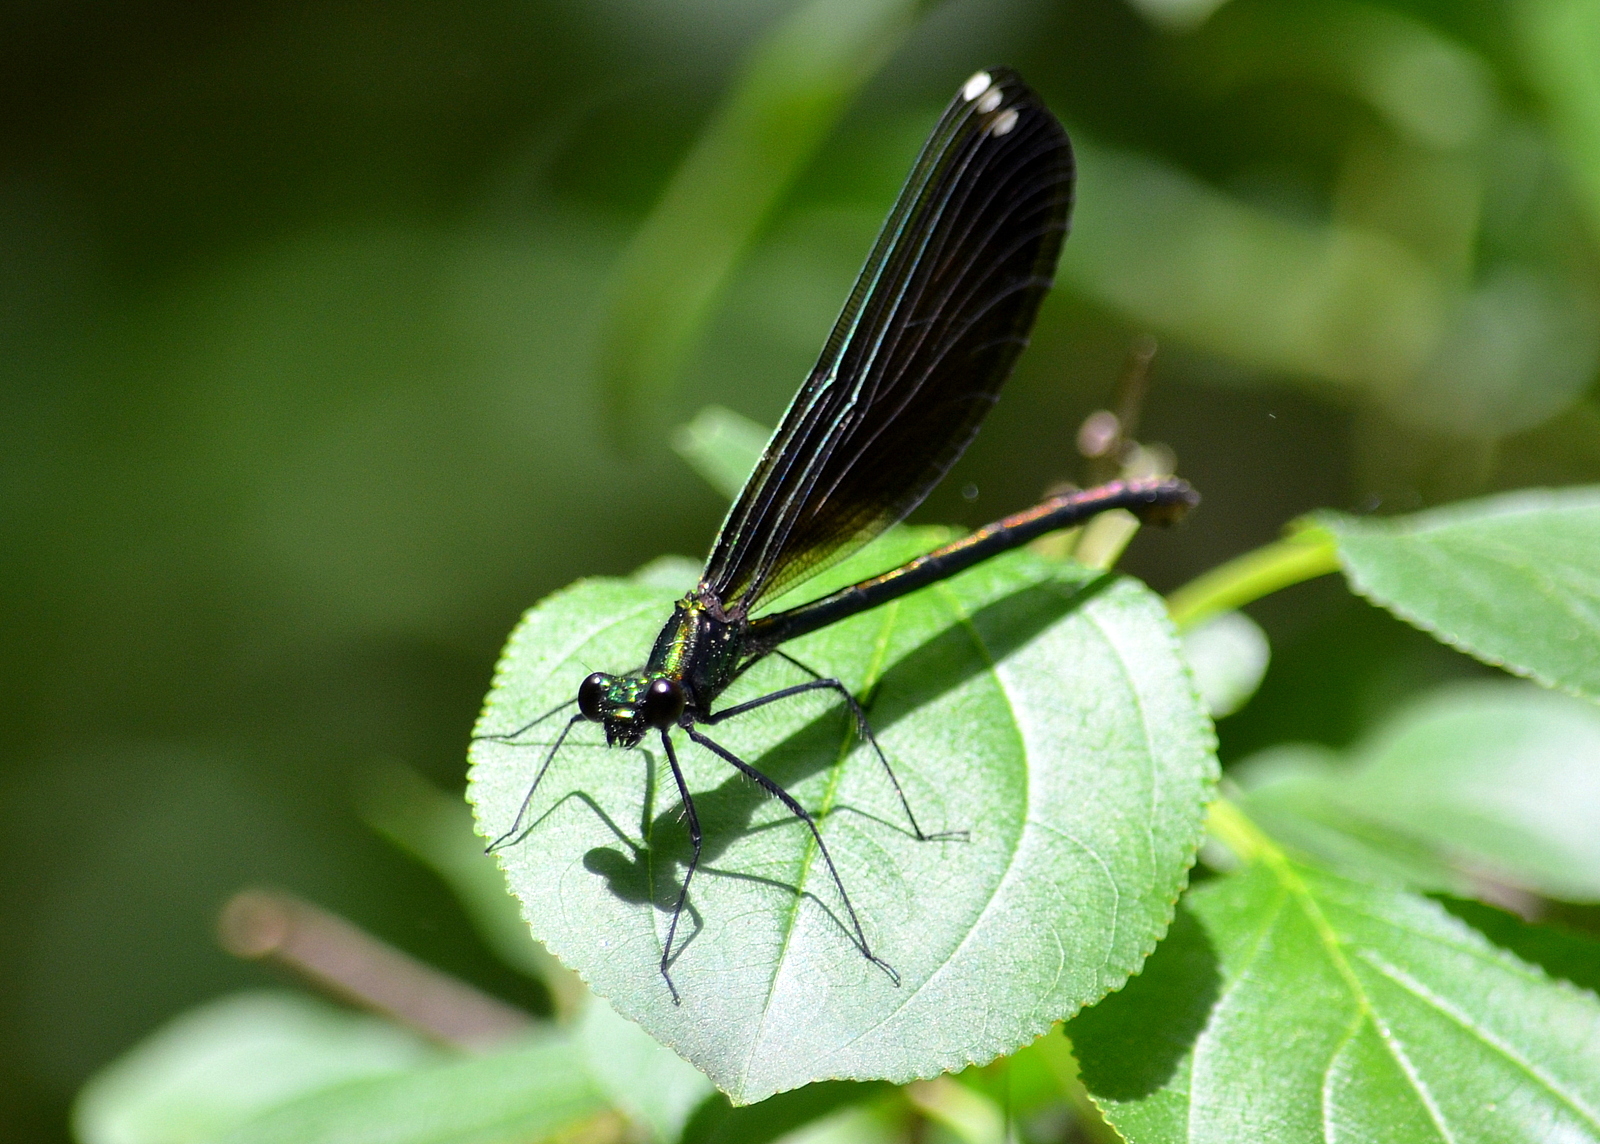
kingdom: Animalia
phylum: Arthropoda
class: Insecta
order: Odonata
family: Calopterygidae
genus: Calopteryx
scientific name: Calopteryx maculata
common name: Ebony jewelwing
